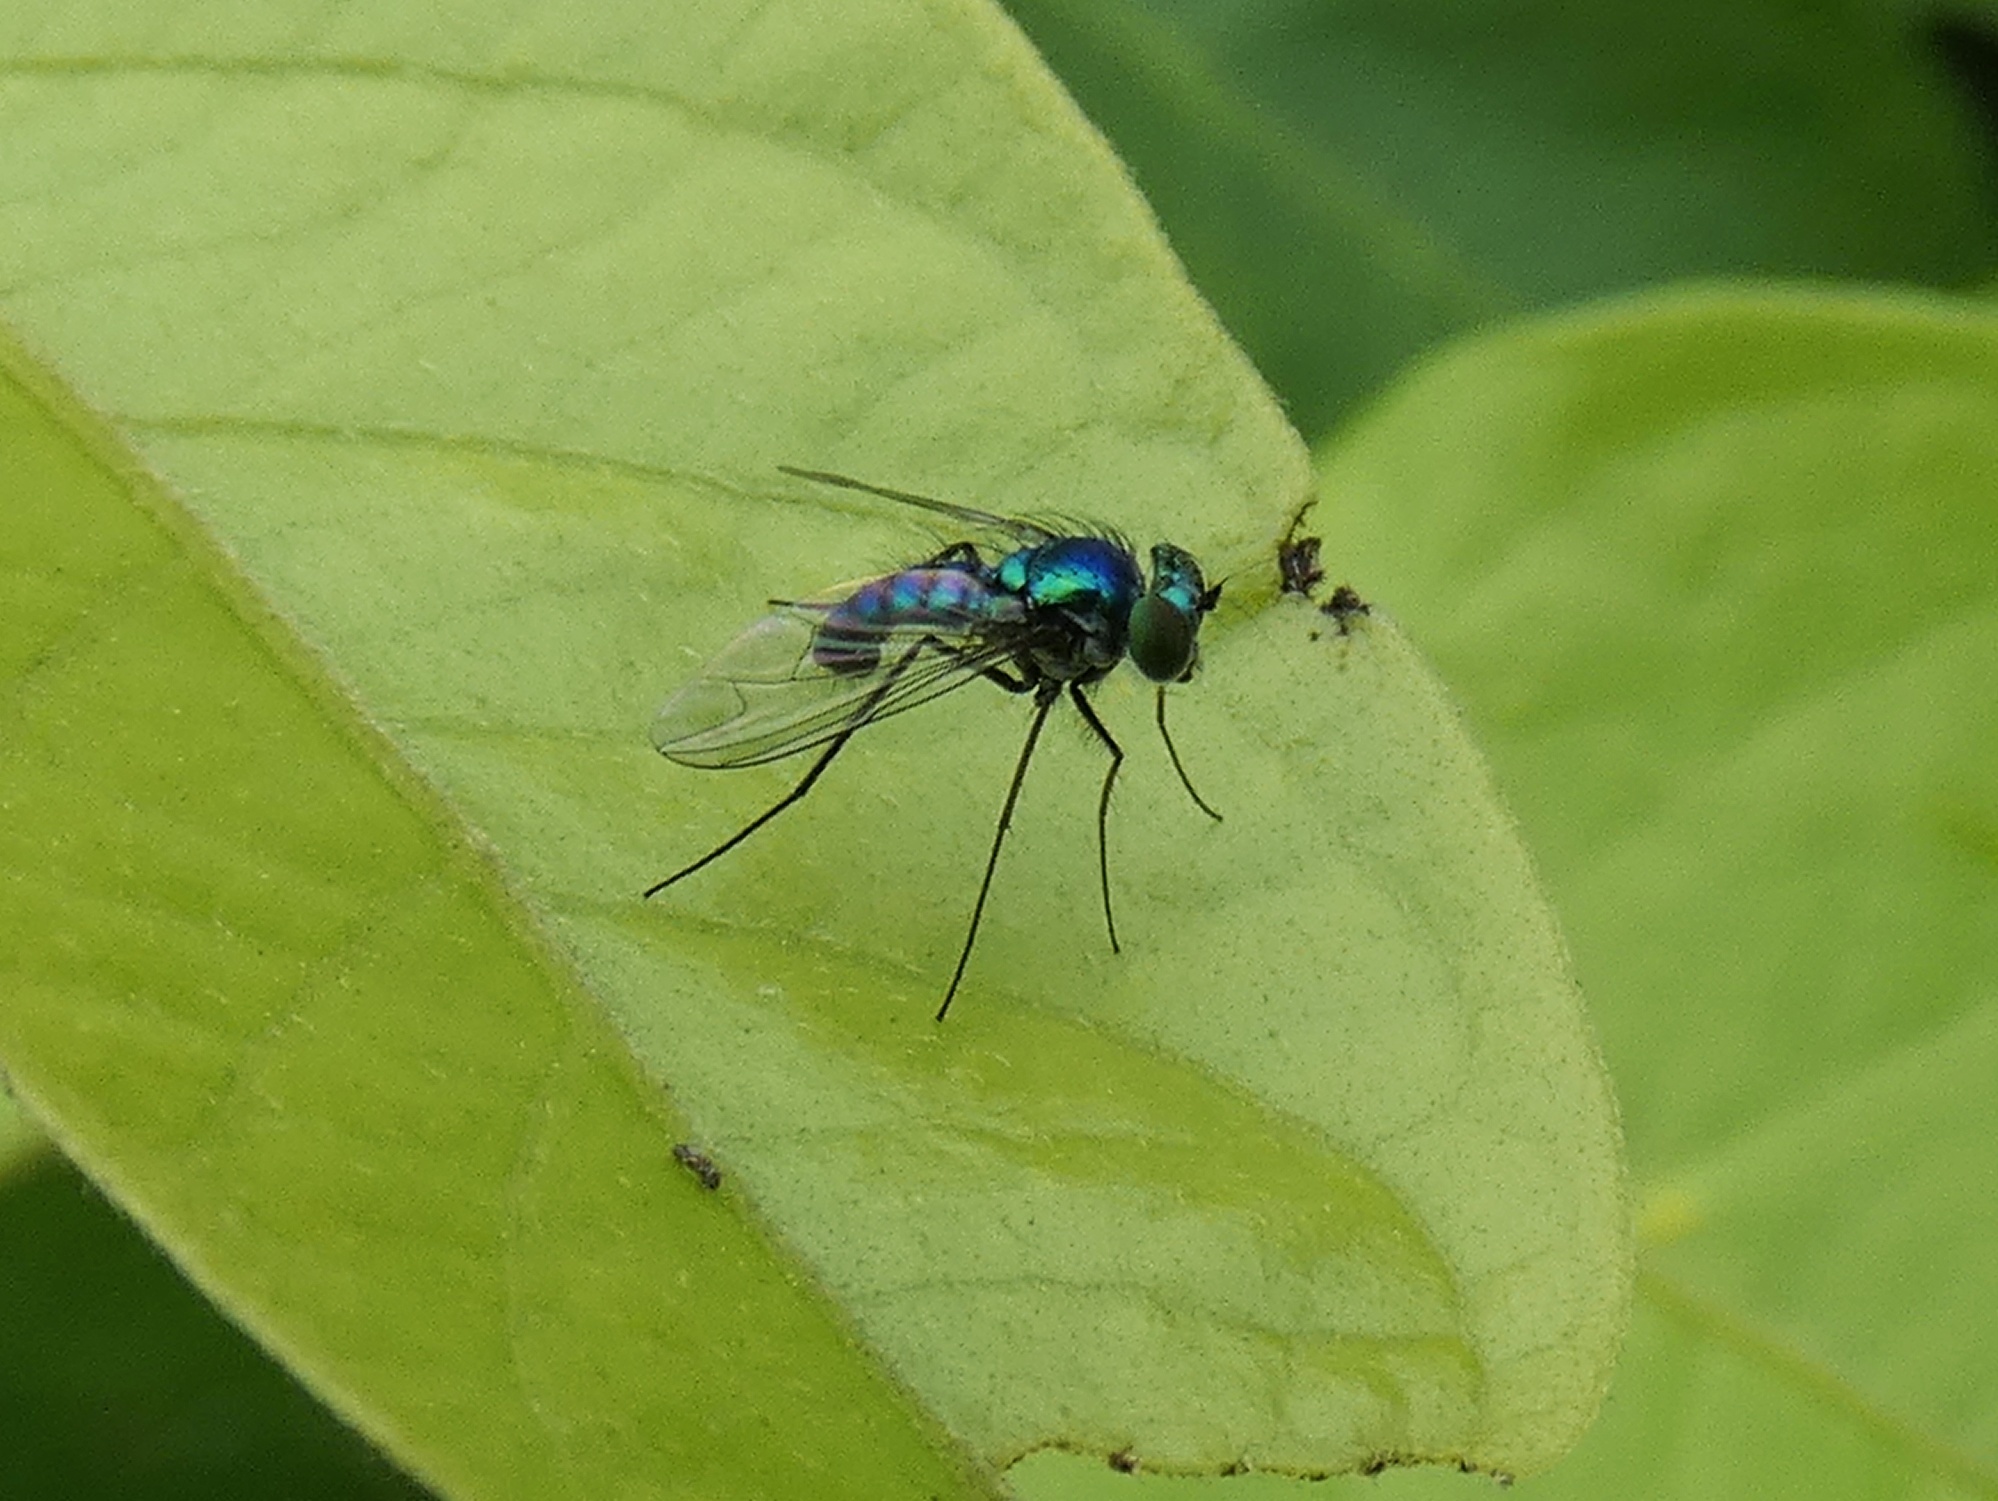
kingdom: Animalia
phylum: Arthropoda
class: Insecta
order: Diptera
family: Dolichopodidae
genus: Condylostylus
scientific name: Condylostylus purpureus
